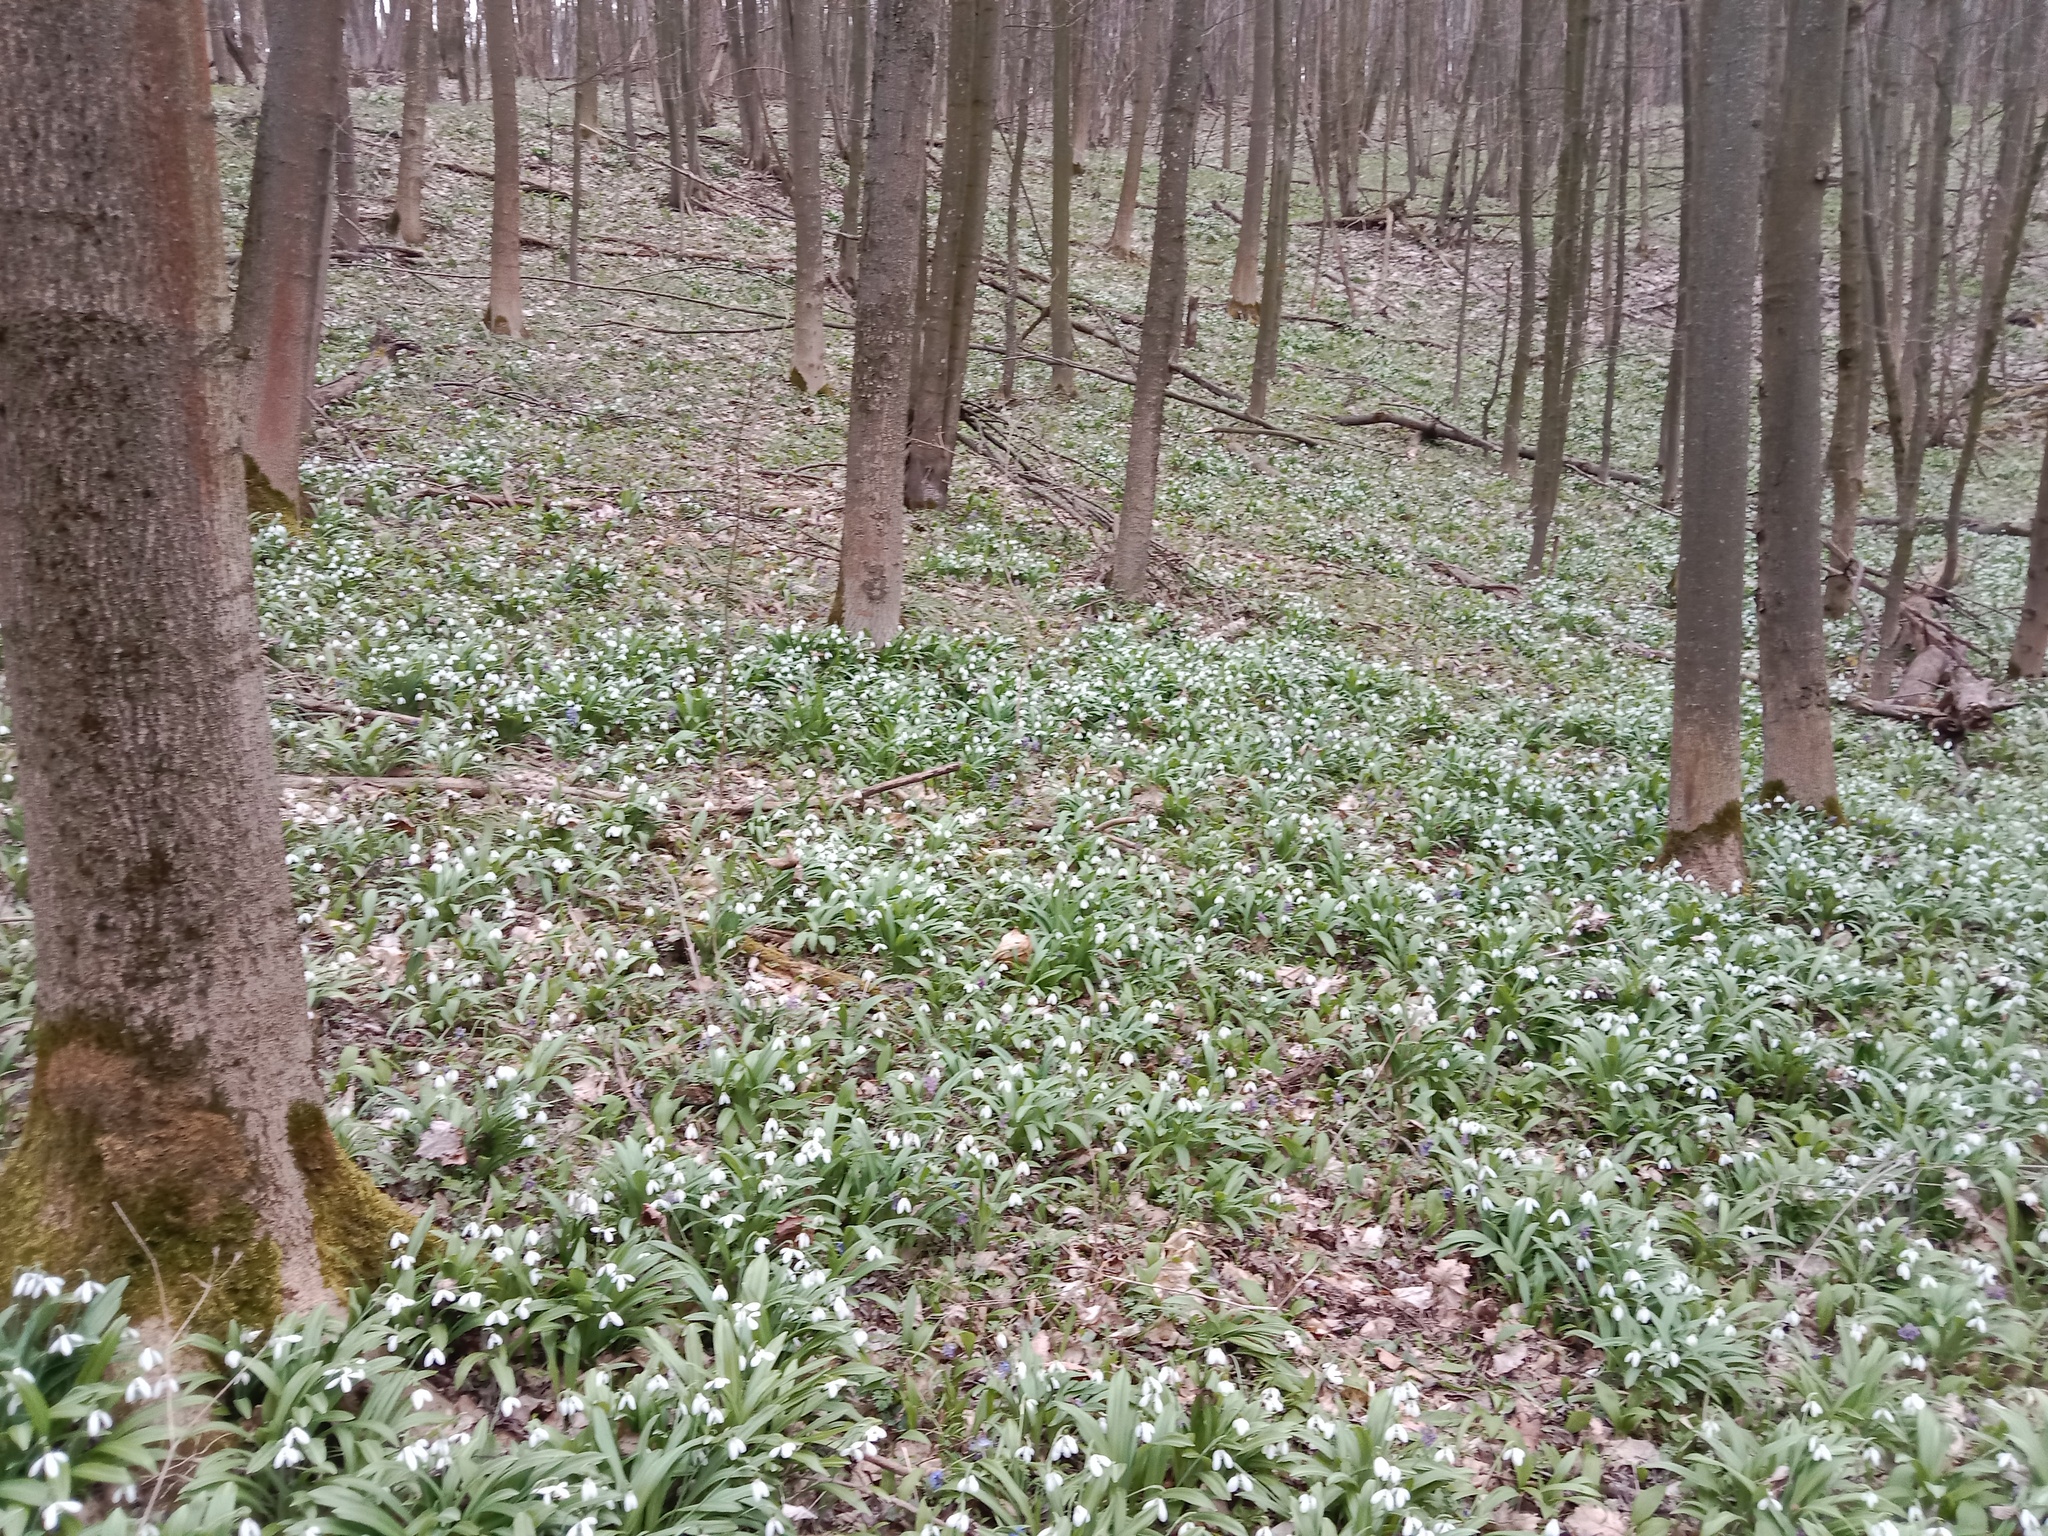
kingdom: Plantae
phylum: Tracheophyta
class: Liliopsida
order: Asparagales
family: Amaryllidaceae
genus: Galanthus
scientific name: Galanthus plicatus
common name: Pleated snowdrop
